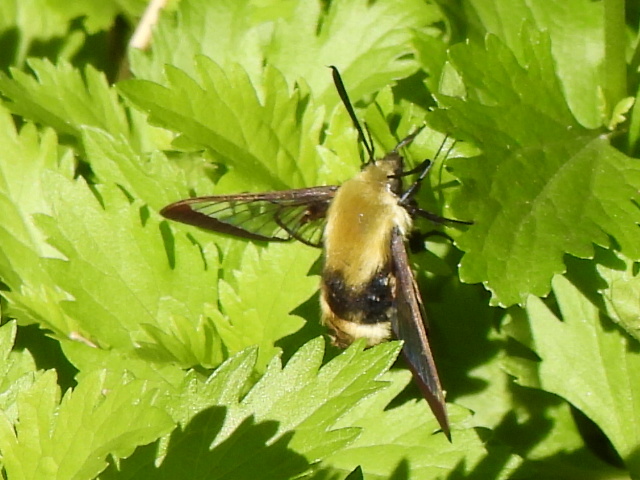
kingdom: Animalia
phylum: Arthropoda
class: Insecta
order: Lepidoptera
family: Sphingidae
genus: Hemaris
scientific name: Hemaris diffinis
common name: Bumblebee moth
